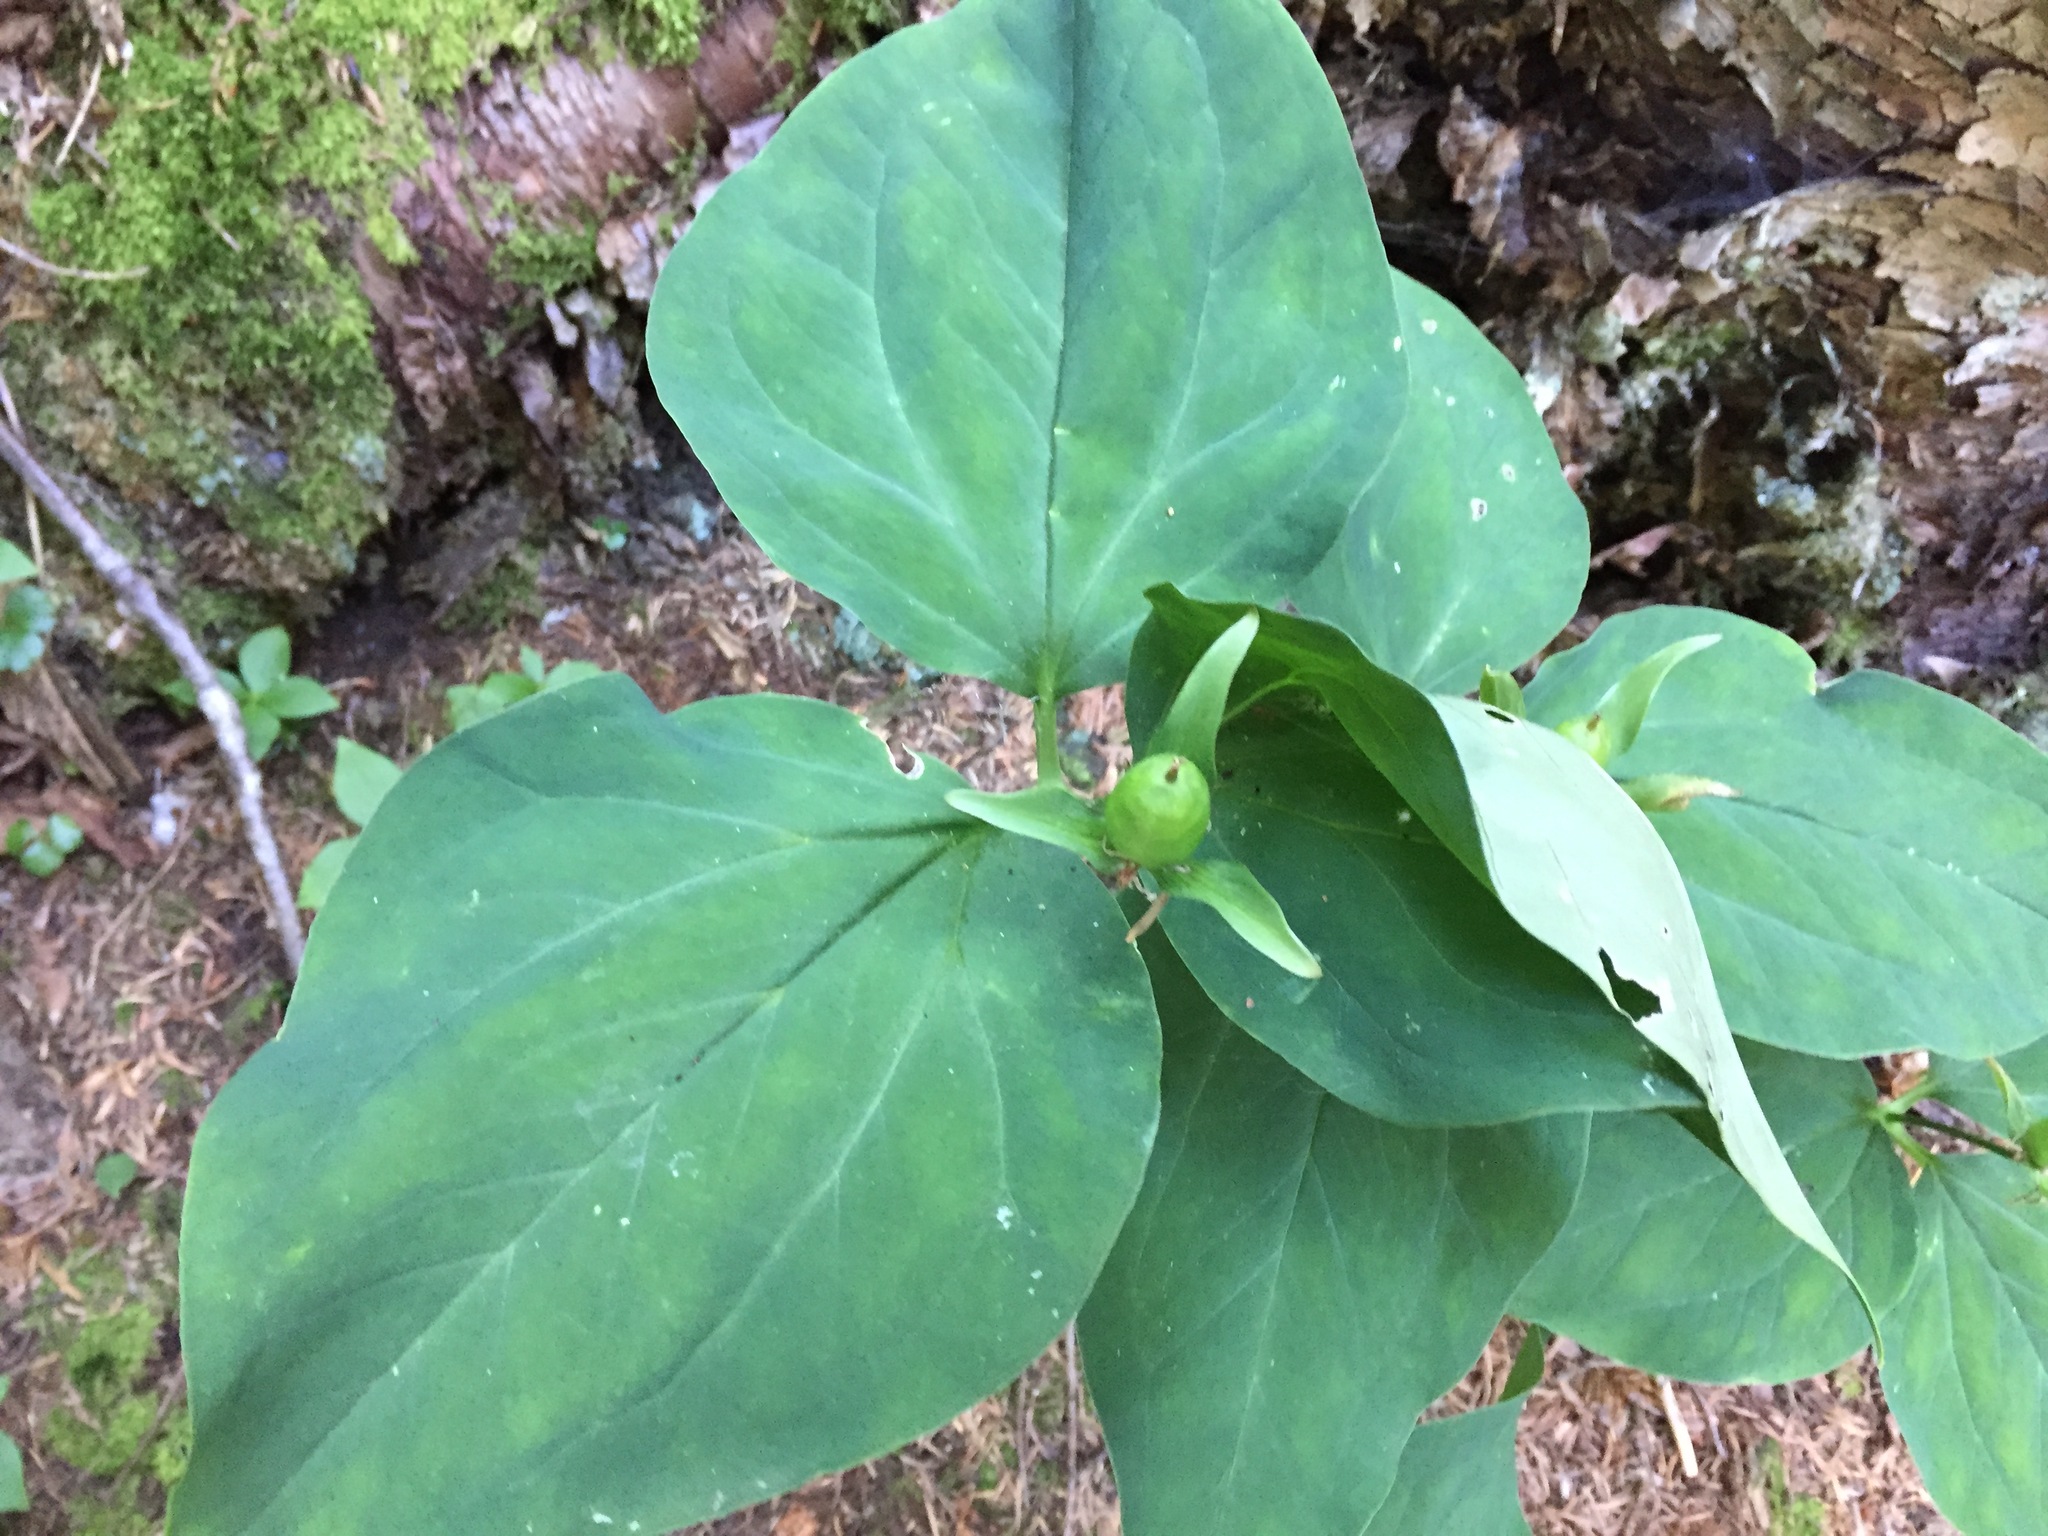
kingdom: Plantae
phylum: Tracheophyta
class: Liliopsida
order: Liliales
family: Melanthiaceae
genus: Trillium
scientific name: Trillium undulatum
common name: Paint trillium
